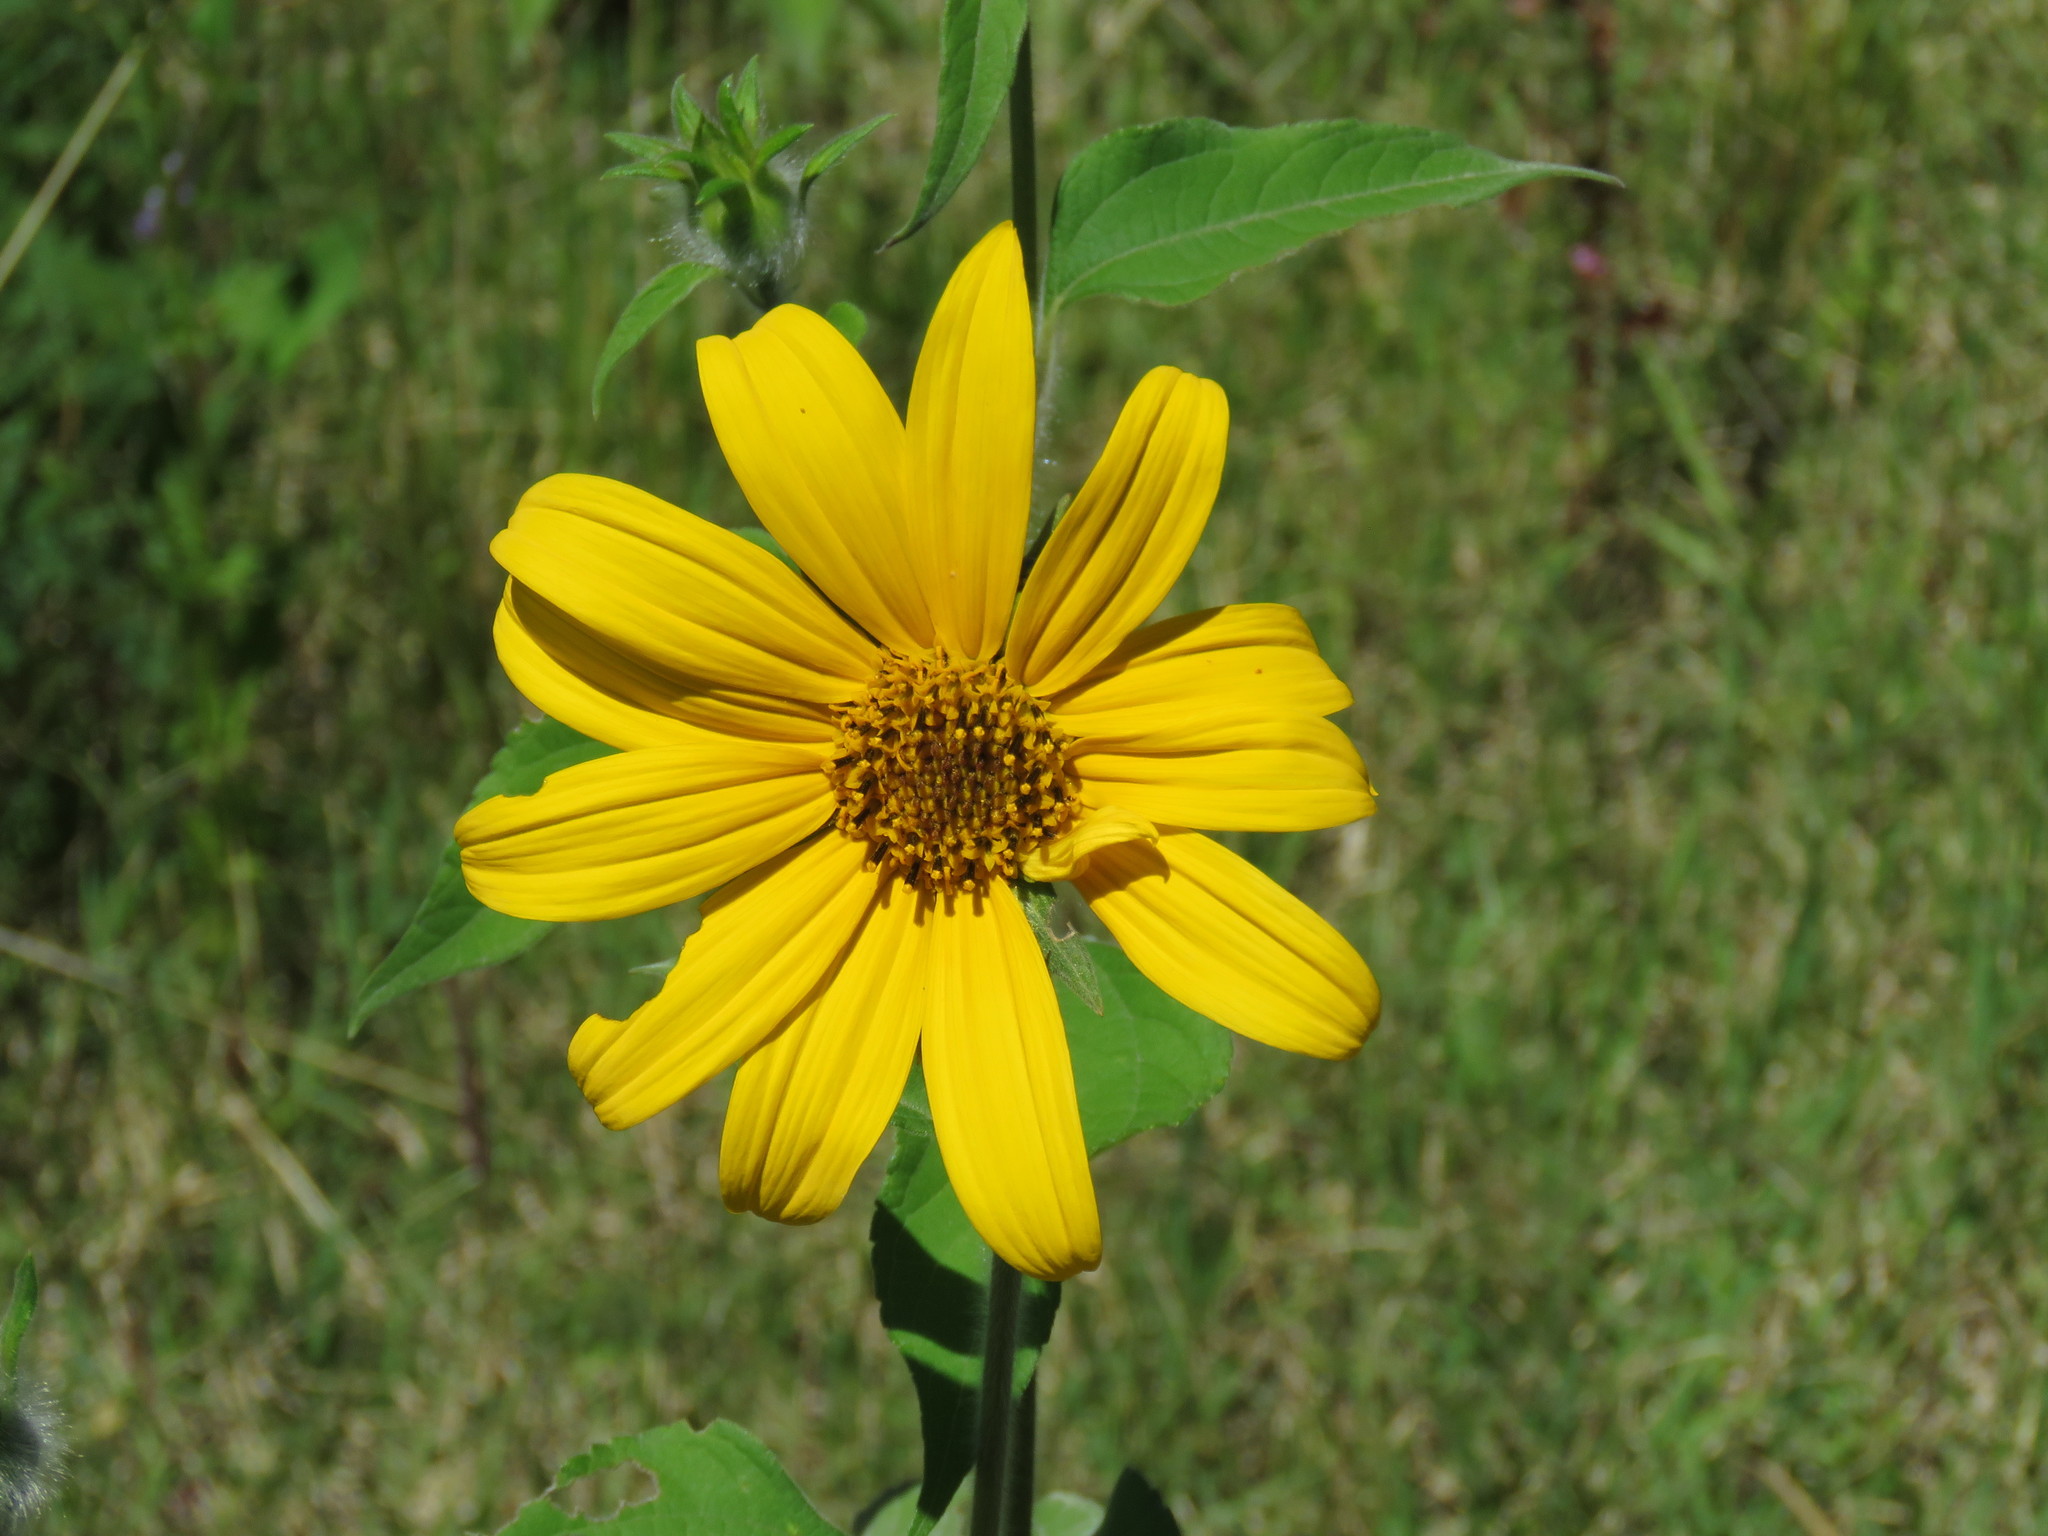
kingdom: Plantae
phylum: Tracheophyta
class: Magnoliopsida
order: Asterales
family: Asteraceae
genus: Tithonia
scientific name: Tithonia tubaeformis
